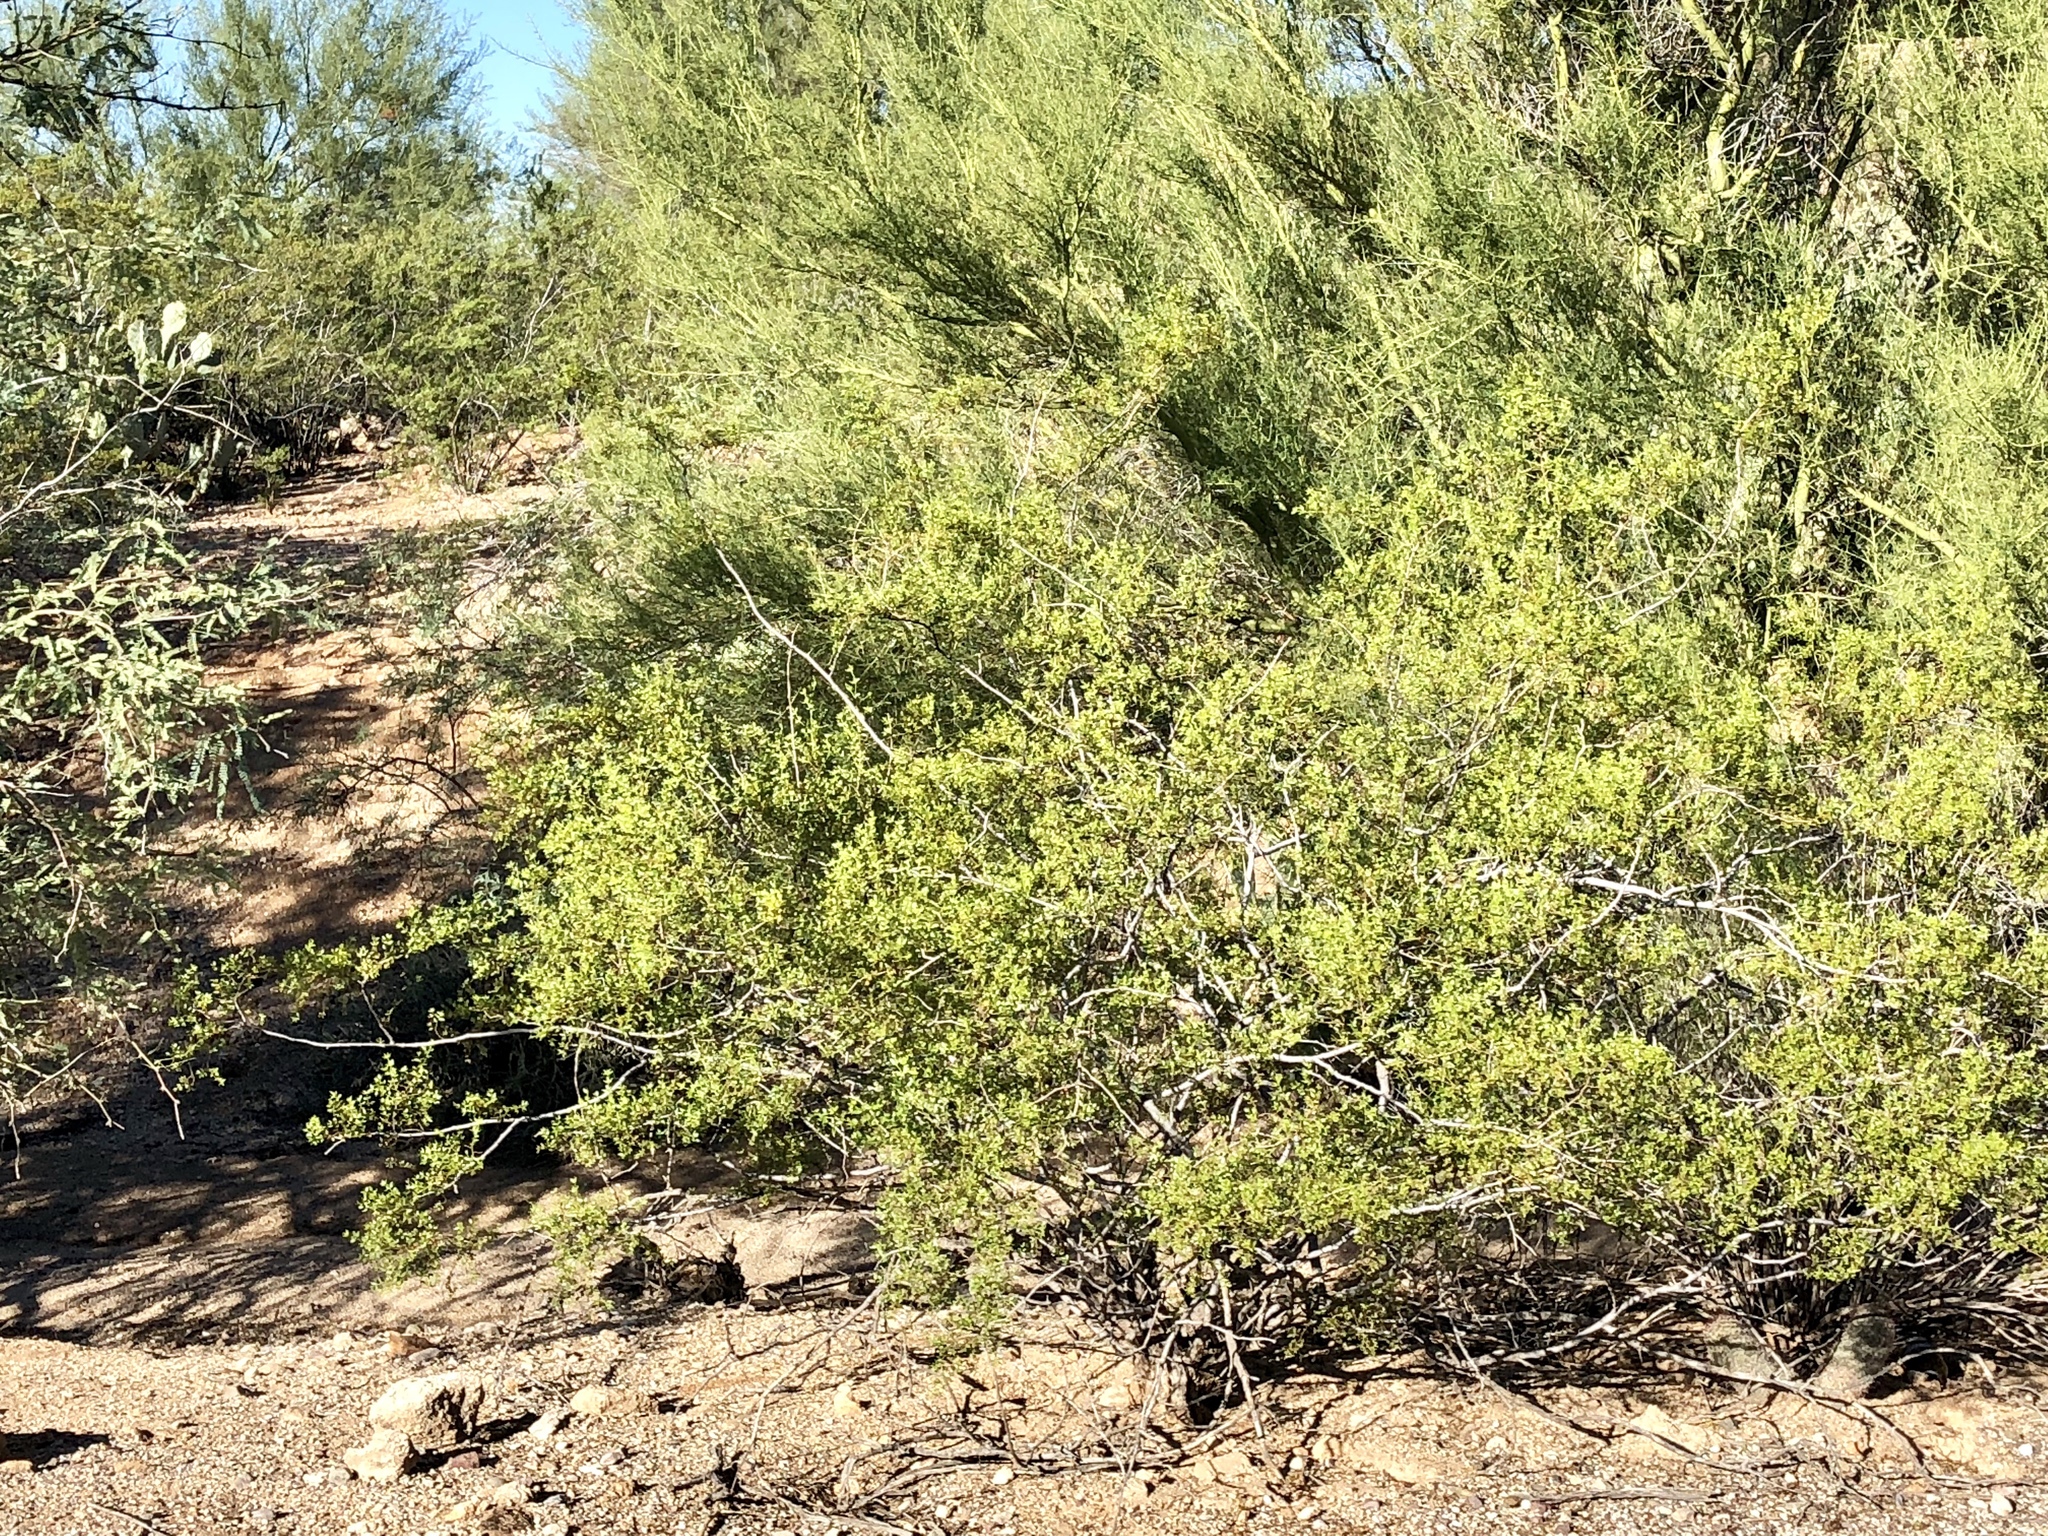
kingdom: Plantae
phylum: Tracheophyta
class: Magnoliopsida
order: Zygophyllales
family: Zygophyllaceae
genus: Larrea
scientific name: Larrea tridentata
